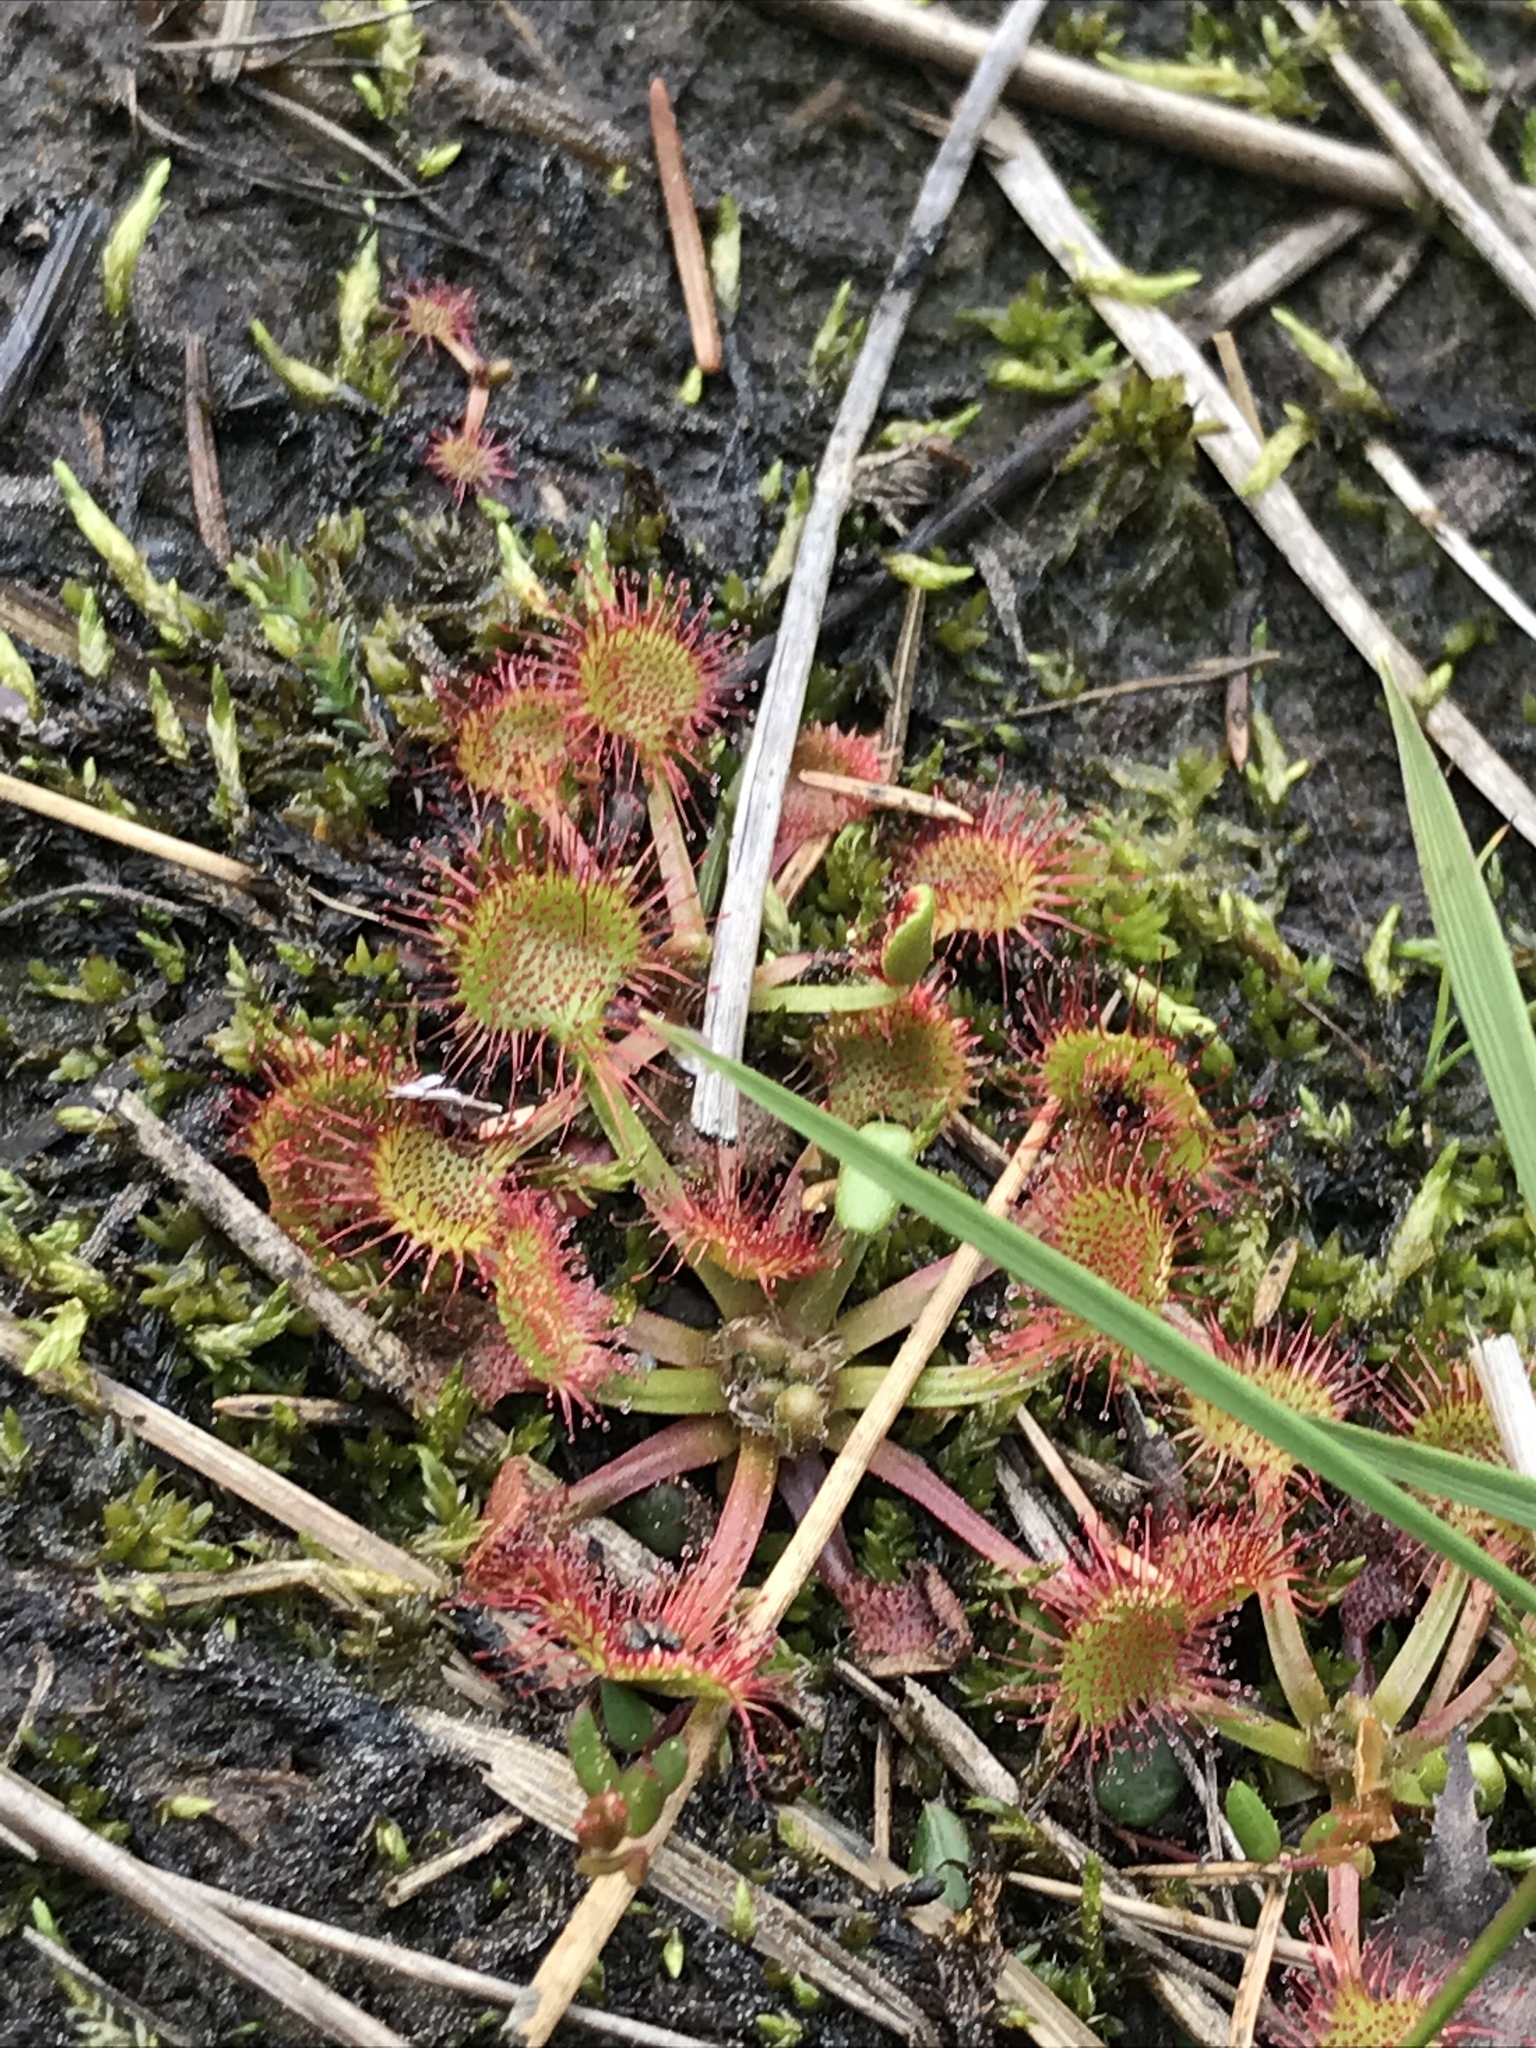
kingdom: Plantae
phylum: Tracheophyta
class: Magnoliopsida
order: Caryophyllales
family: Droseraceae
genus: Drosera
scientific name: Drosera rotundifolia
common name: Round-leaved sundew
